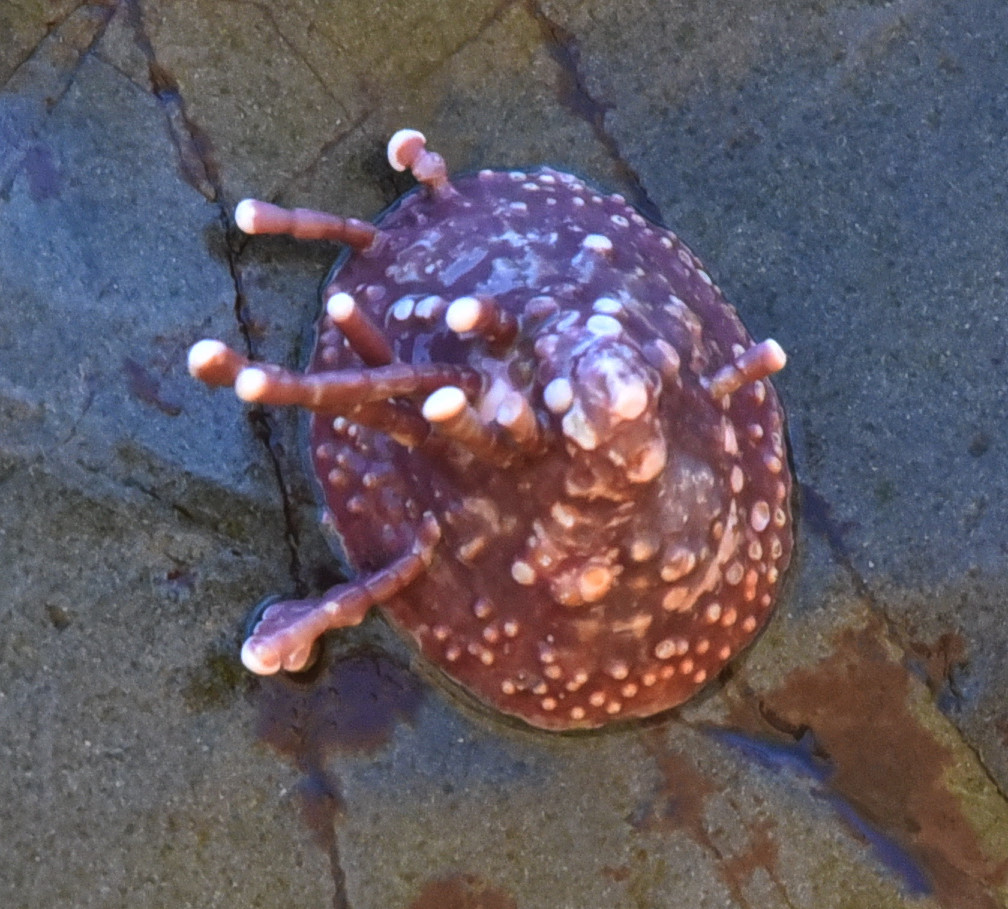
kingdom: Animalia
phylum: Mollusca
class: Gastropoda
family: Acmaeidae
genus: Acmaea
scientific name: Acmaea mitra
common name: Pacific white cap limpet
